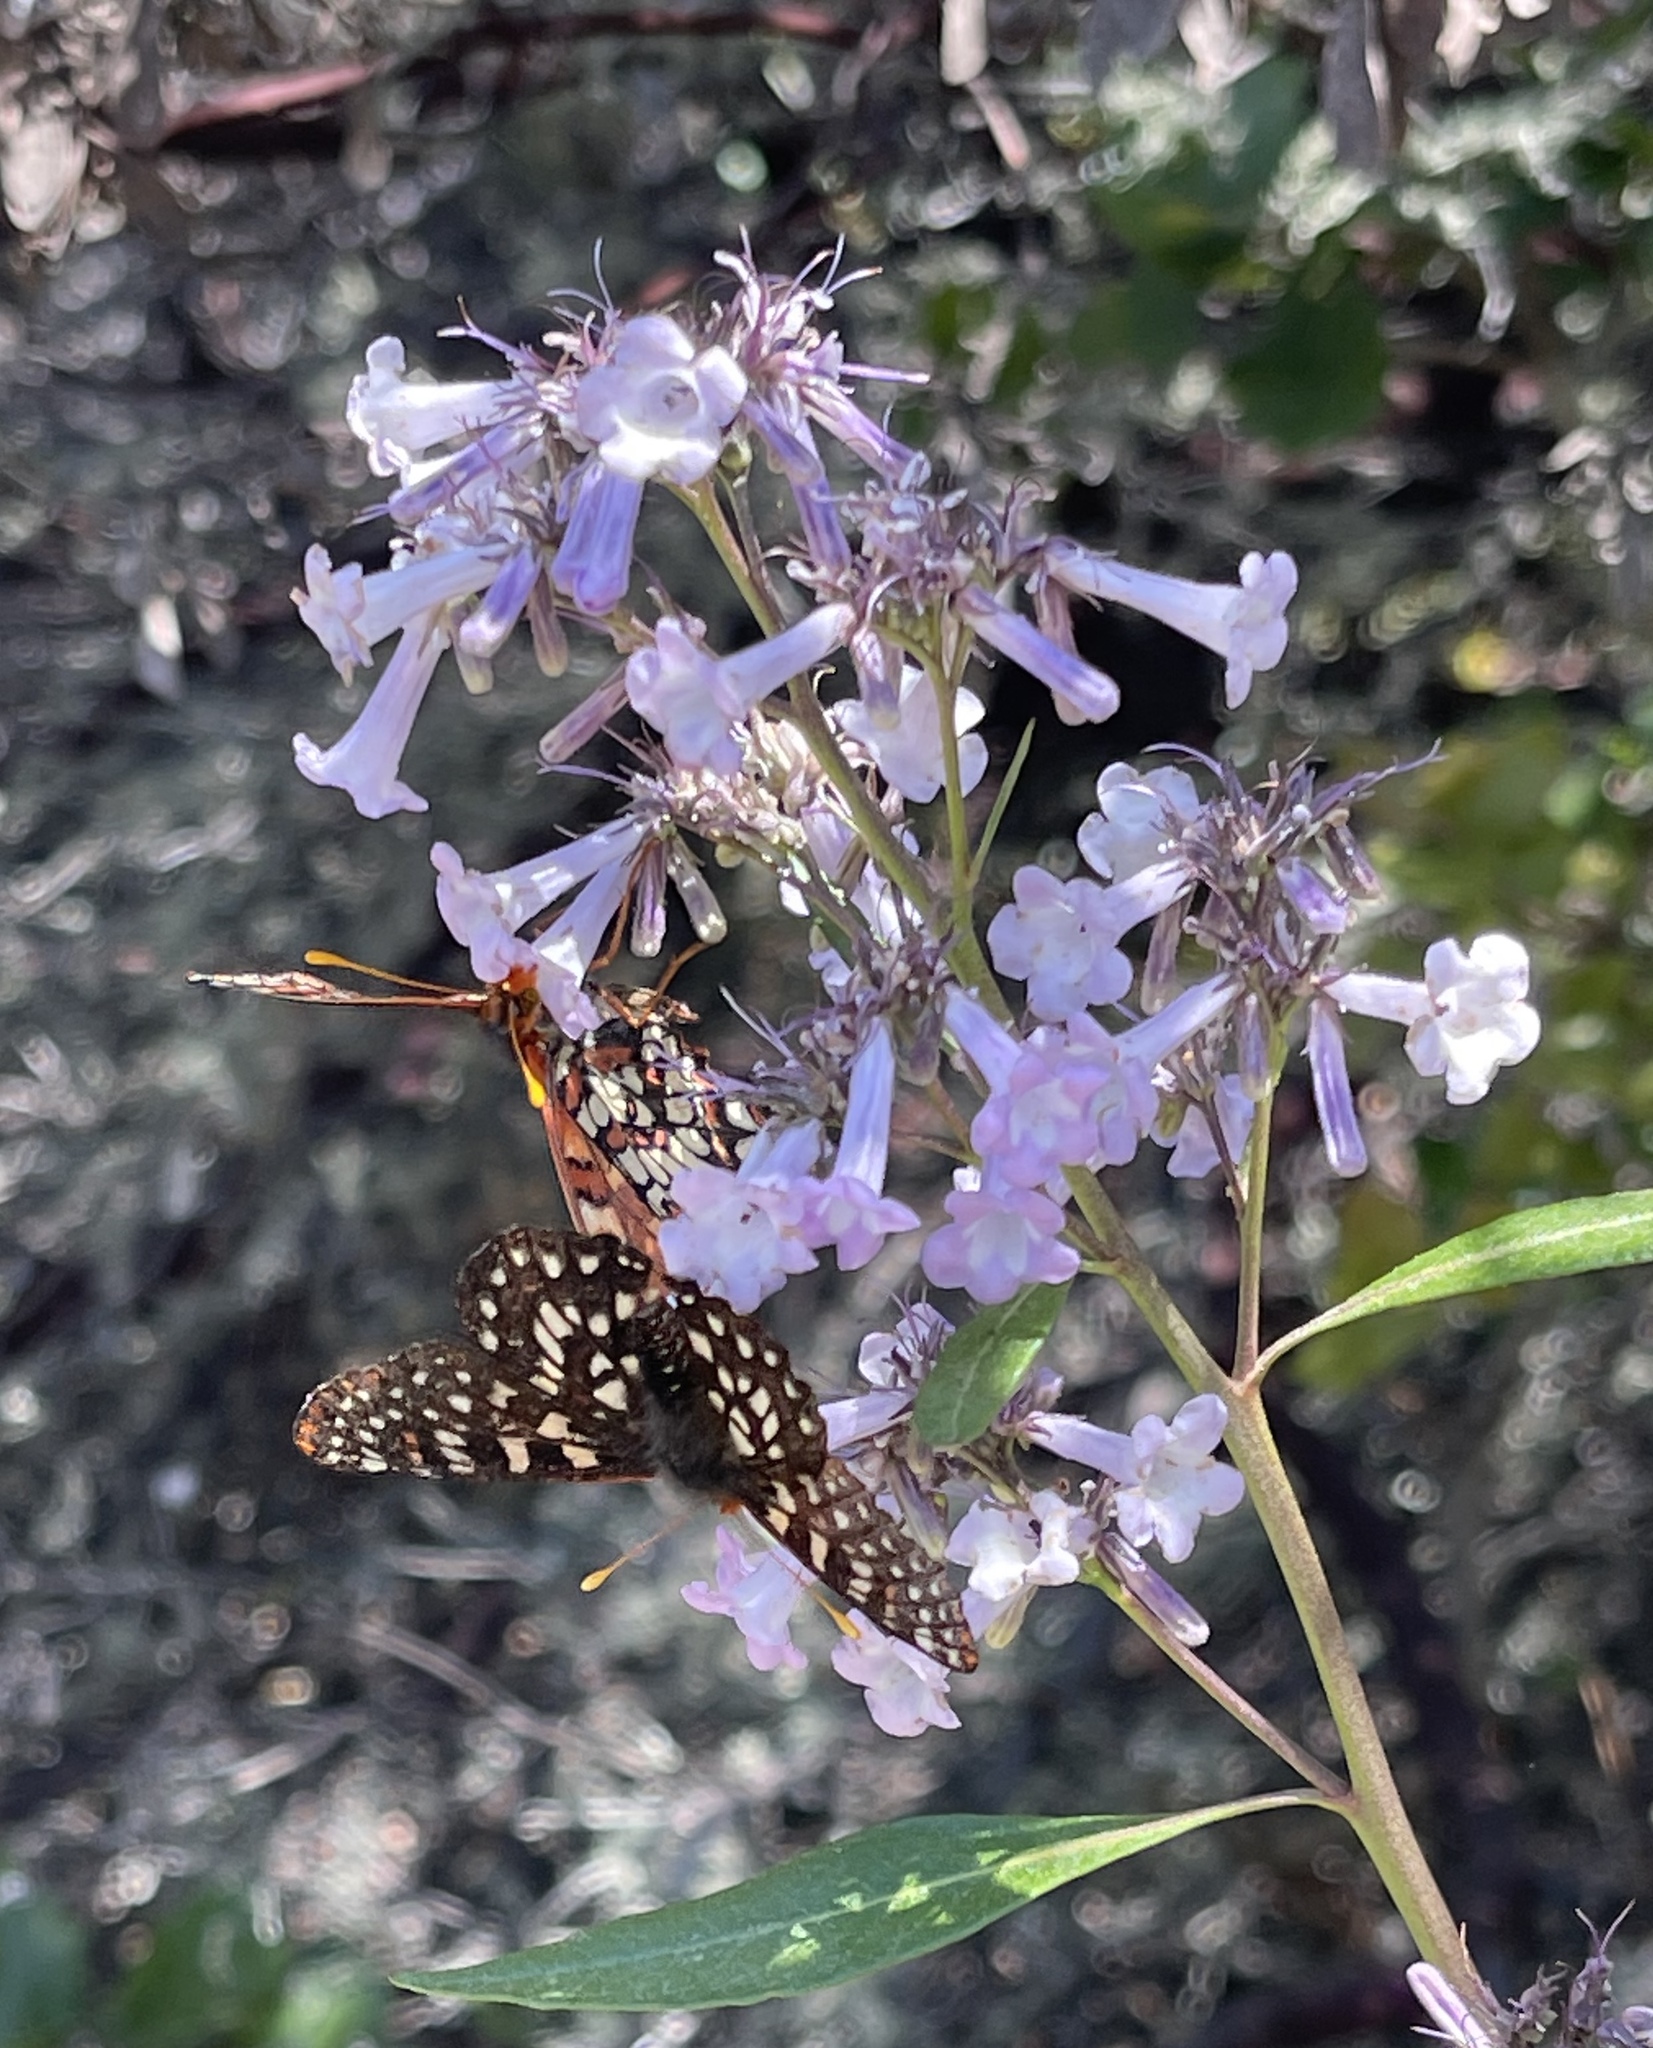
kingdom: Plantae
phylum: Tracheophyta
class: Magnoliopsida
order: Boraginales
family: Namaceae
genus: Eriodictyon
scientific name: Eriodictyon californicum
